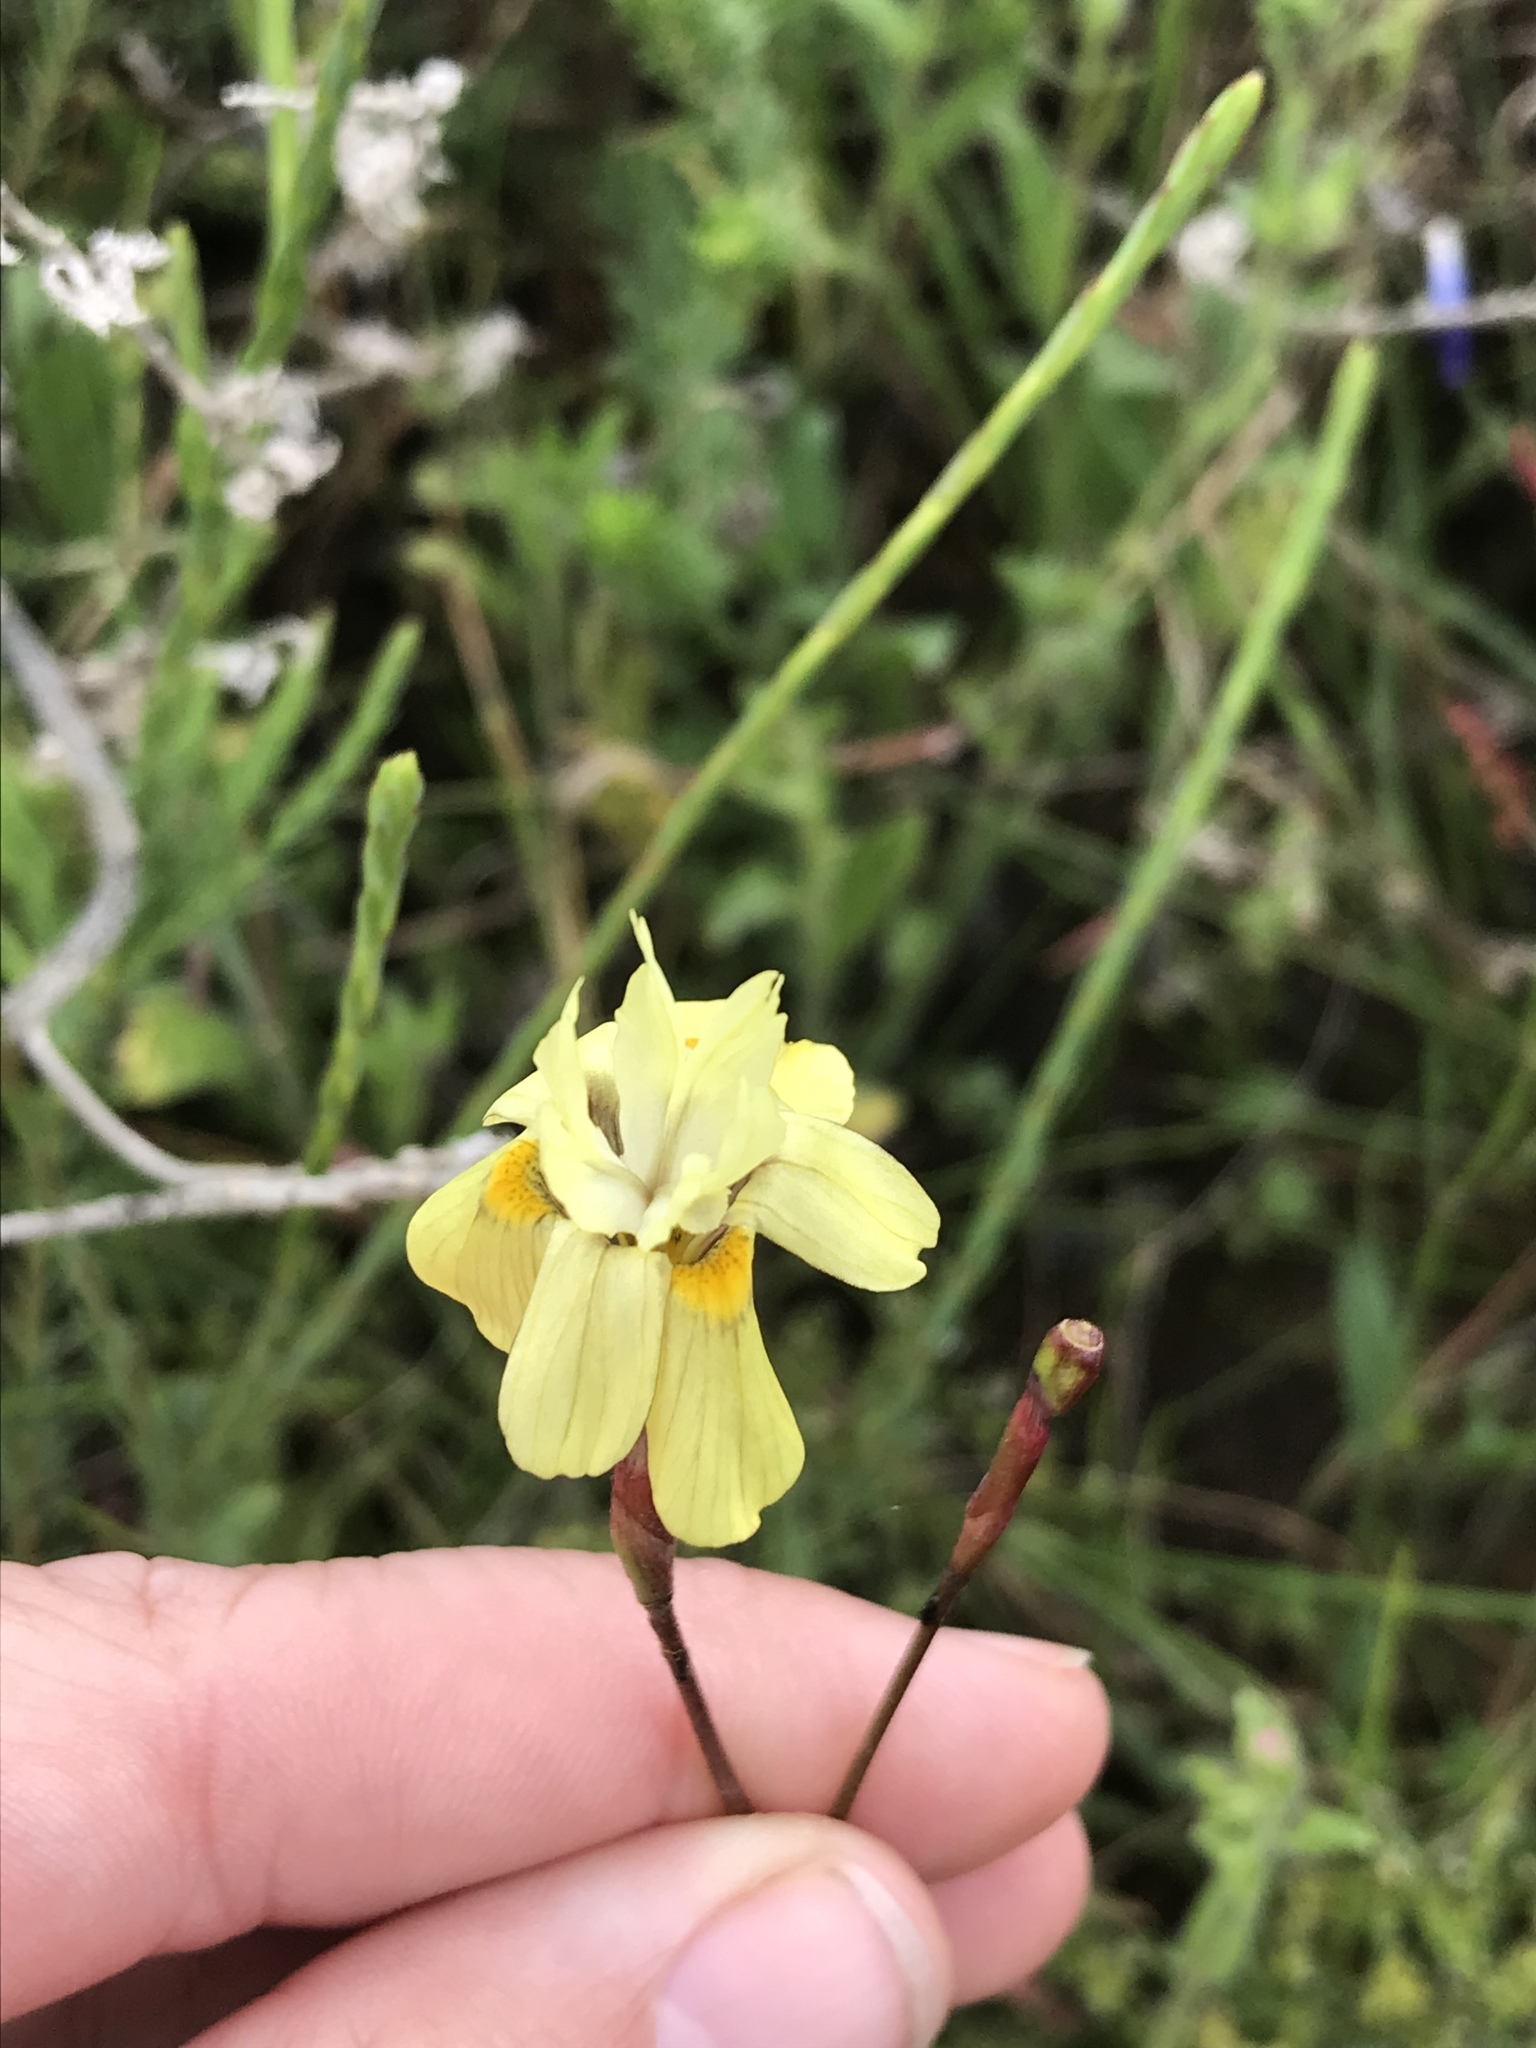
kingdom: Plantae
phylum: Tracheophyta
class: Liliopsida
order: Asparagales
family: Iridaceae
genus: Moraea
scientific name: Moraea gawleri
